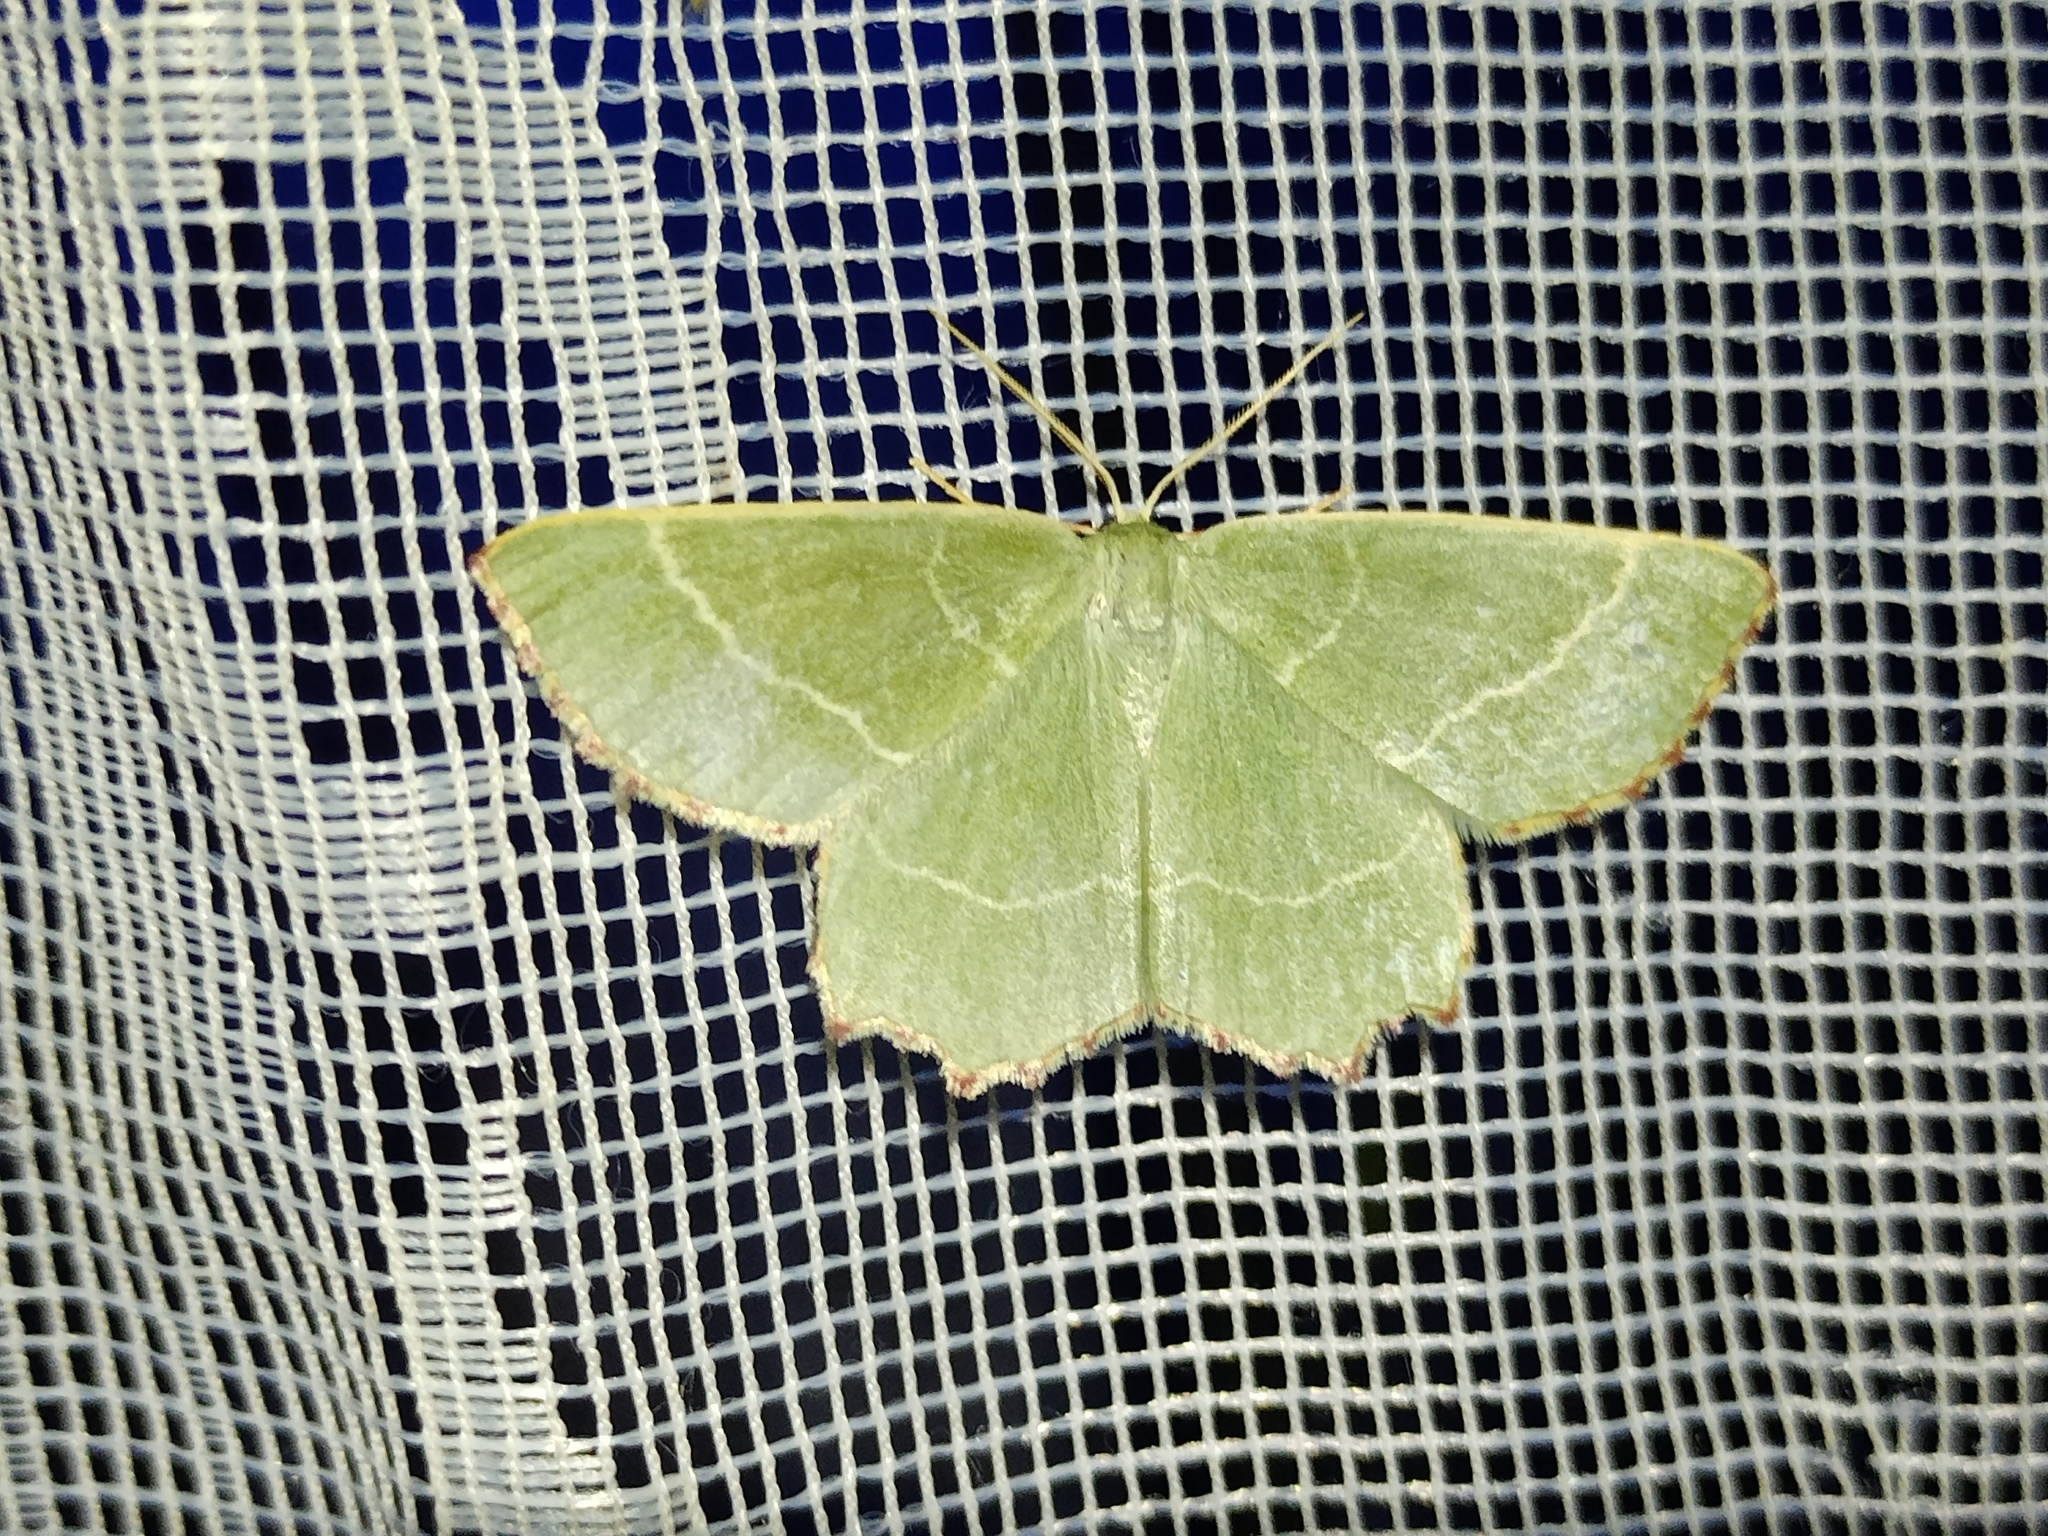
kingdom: Animalia
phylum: Arthropoda
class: Insecta
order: Lepidoptera
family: Geometridae
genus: Thalera
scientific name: Thalera fimbrialis
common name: Sussex emerald
